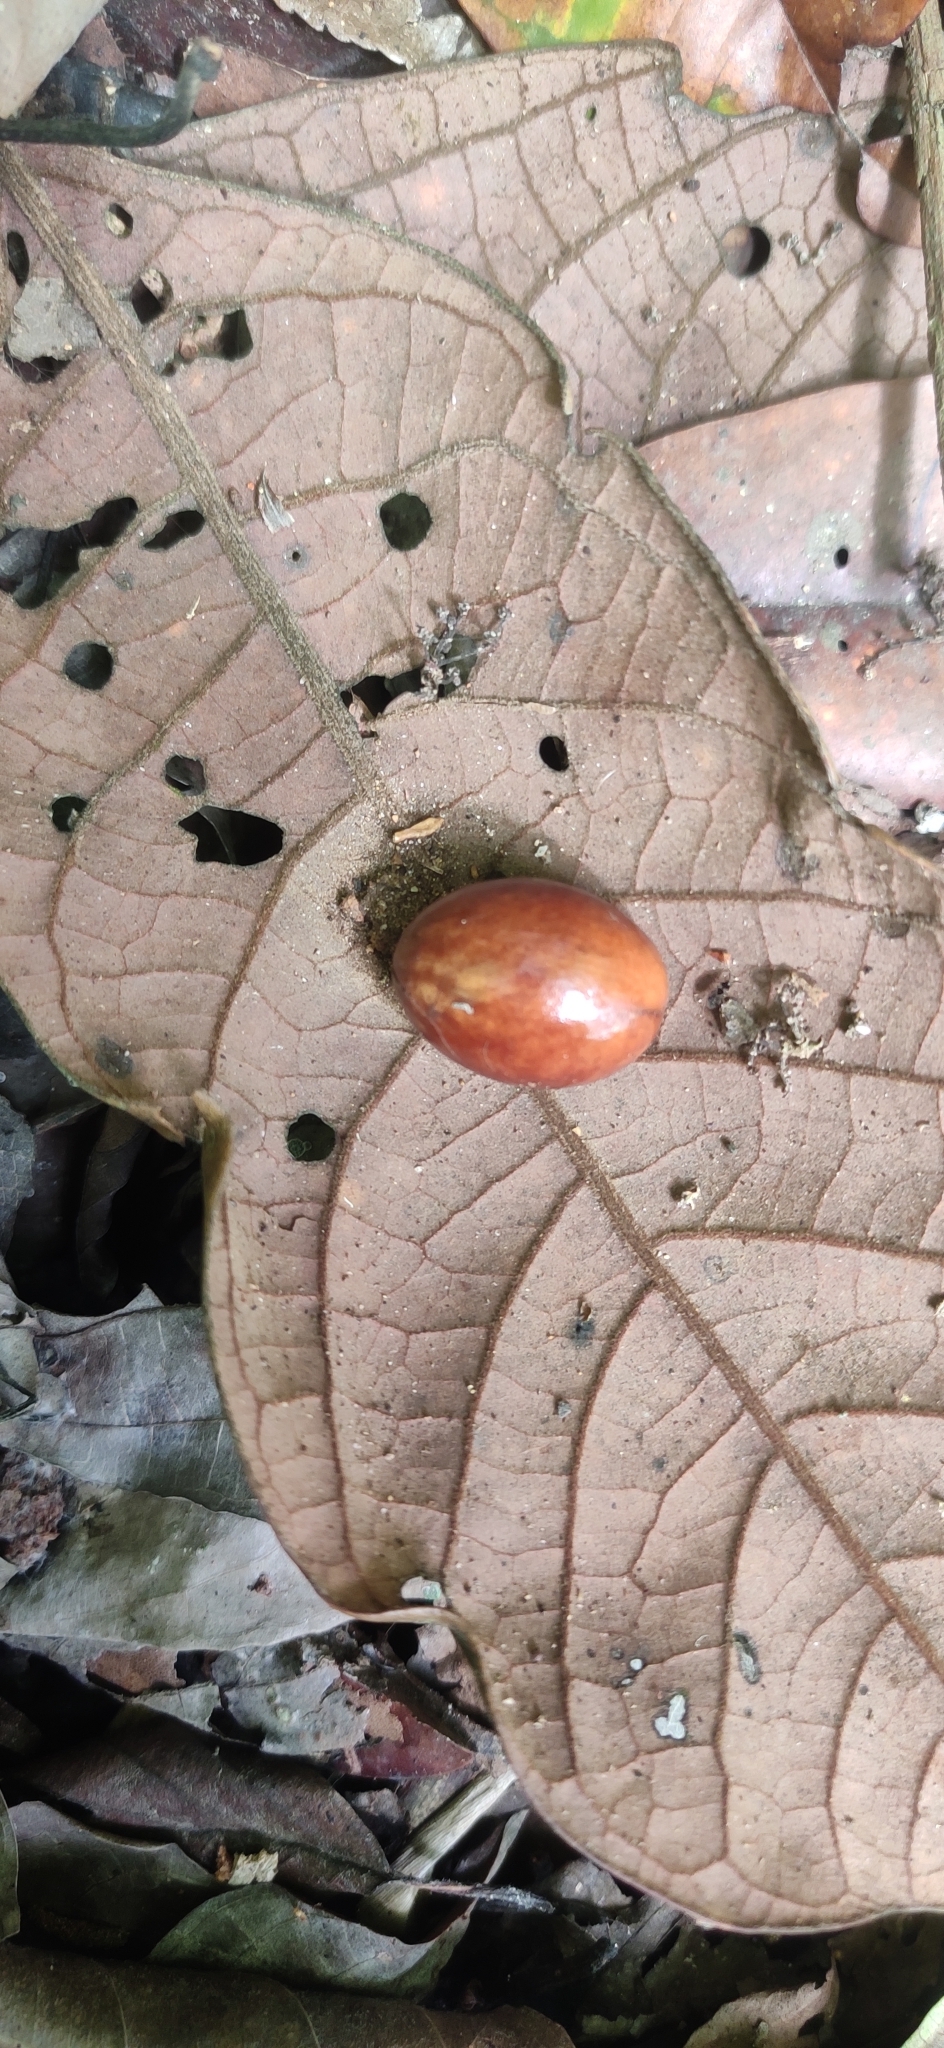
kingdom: Plantae
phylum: Tracheophyta
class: Magnoliopsida
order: Ericales
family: Sapotaceae
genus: Palaquium
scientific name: Palaquium ravii
